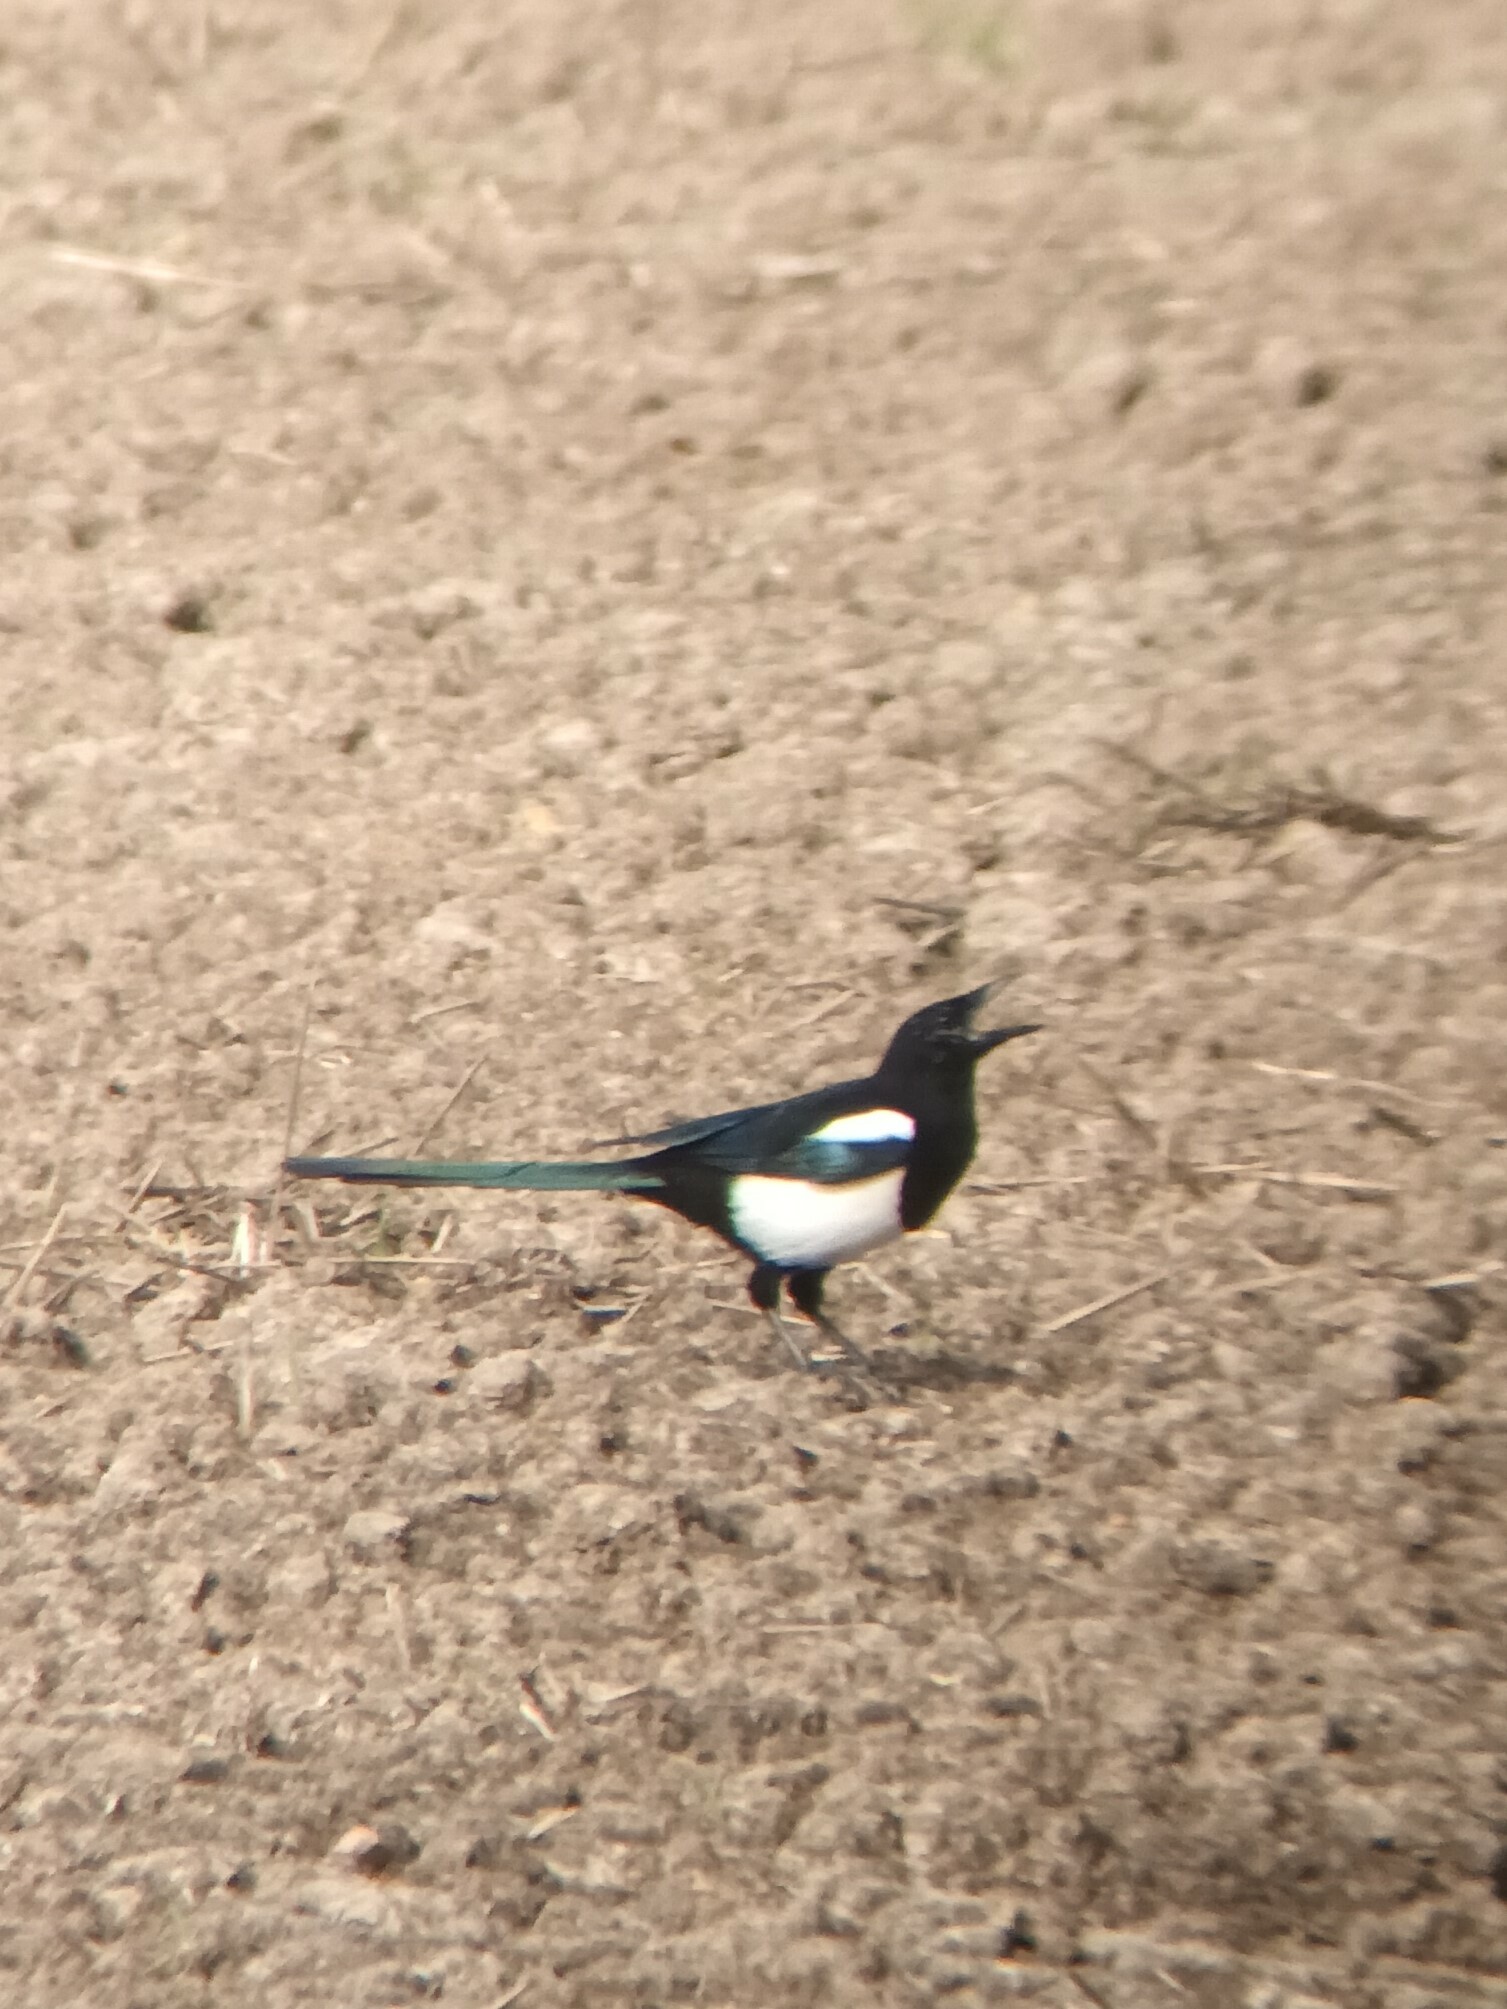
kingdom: Animalia
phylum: Chordata
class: Aves
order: Passeriformes
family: Corvidae
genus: Pica
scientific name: Pica pica
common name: Eurasian magpie
